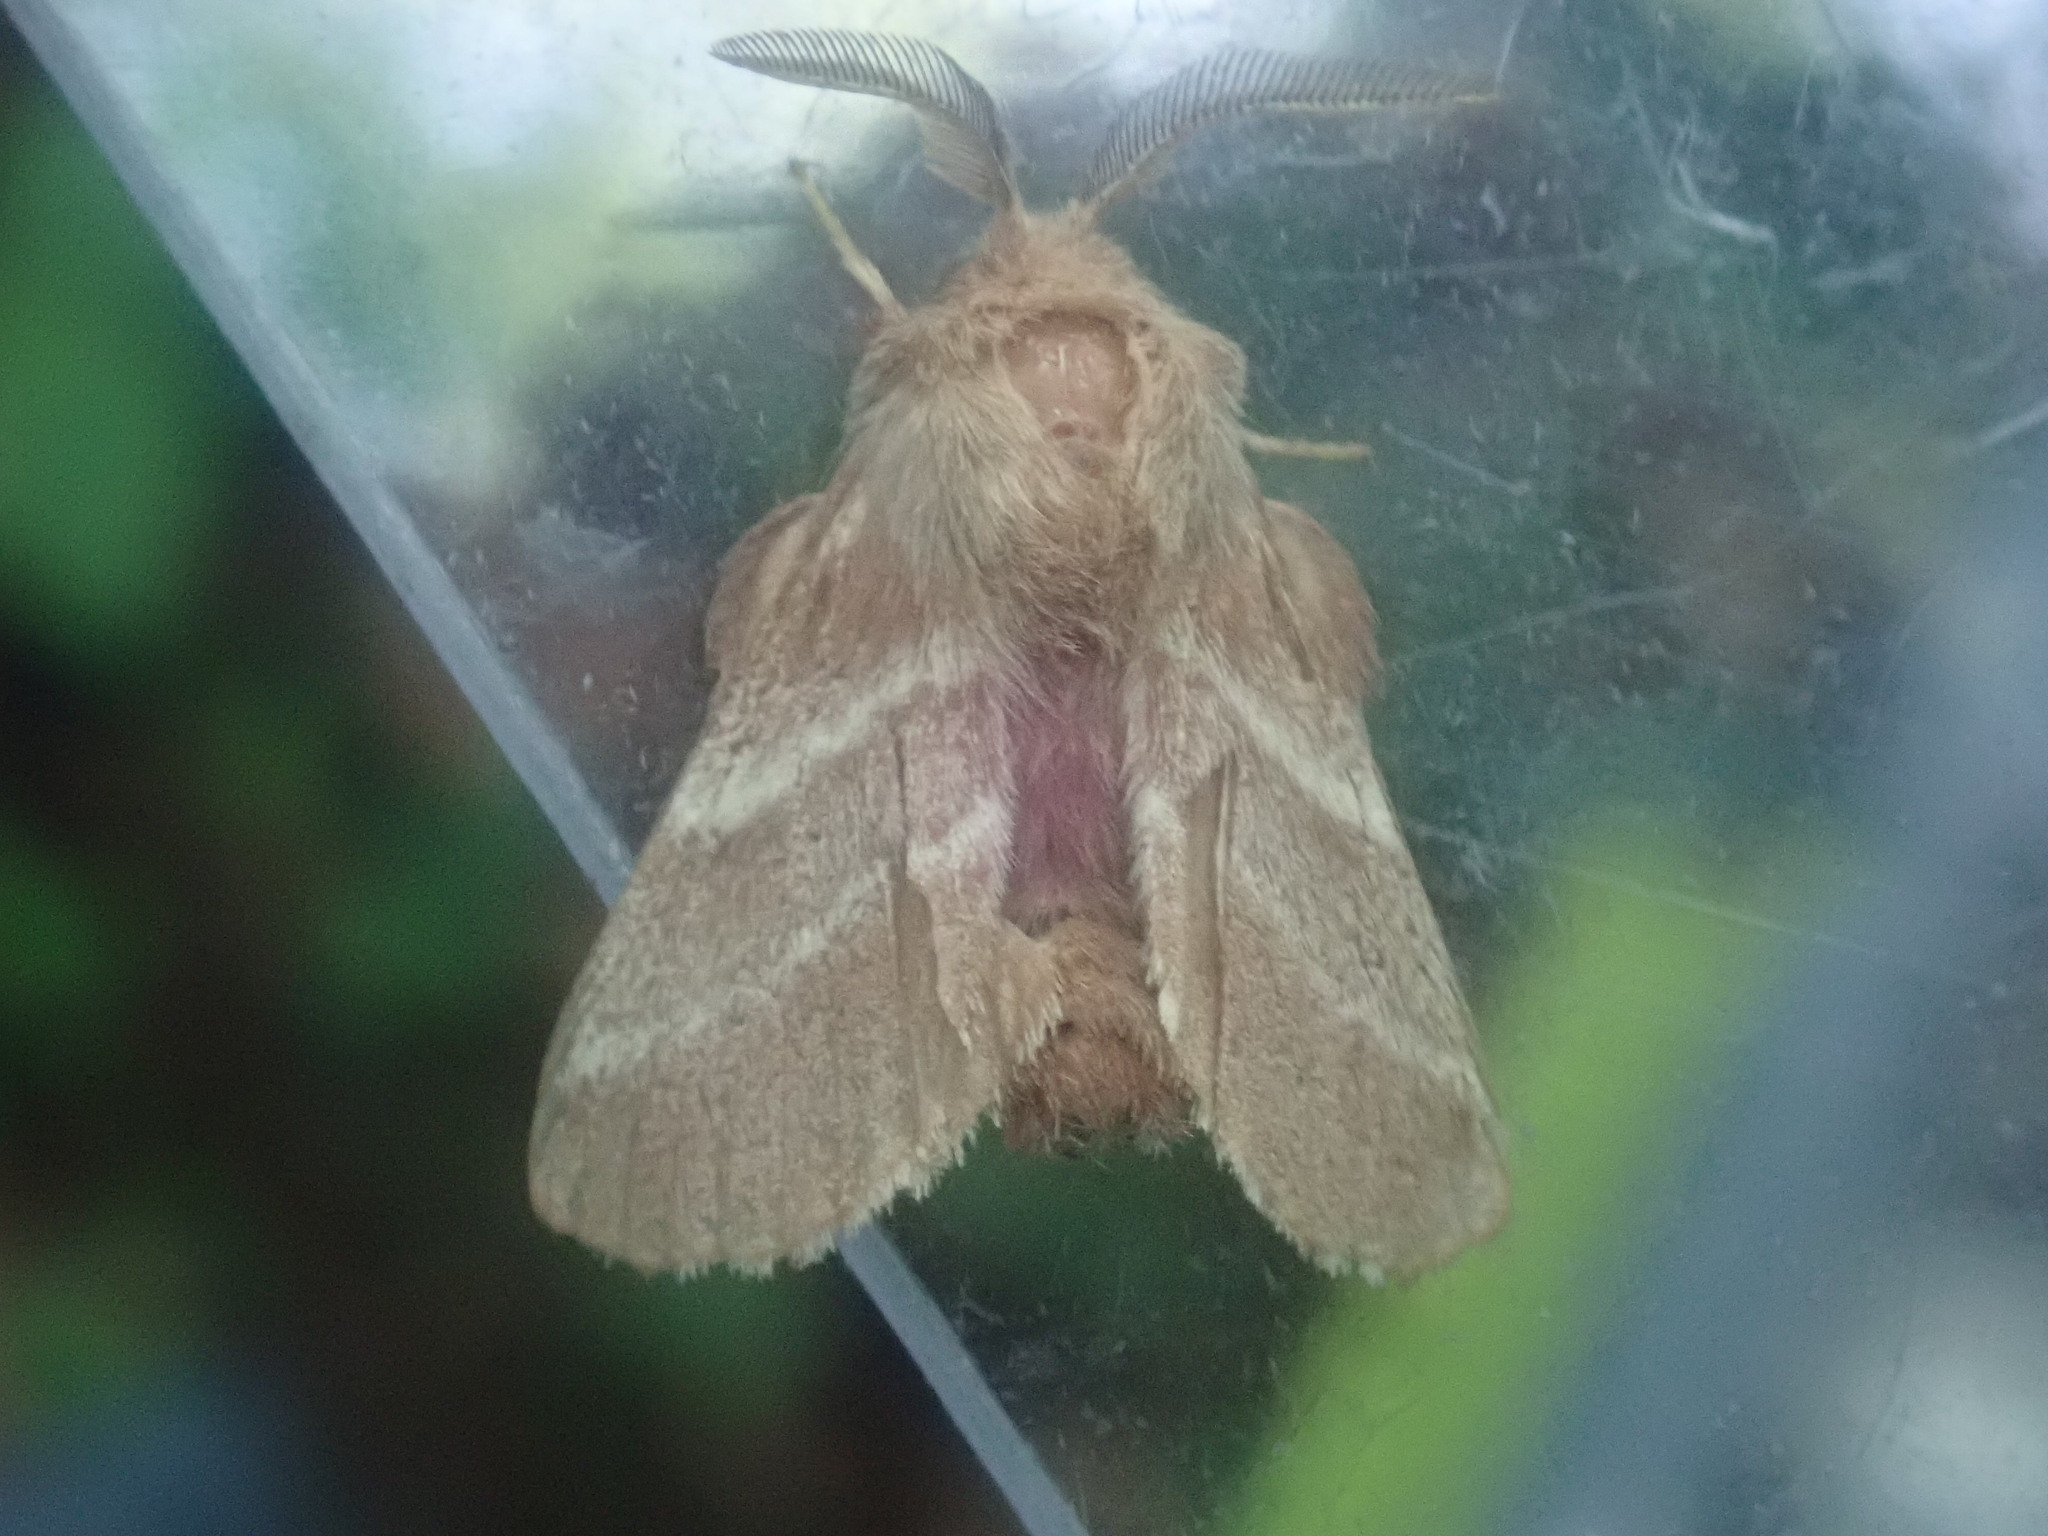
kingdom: Animalia
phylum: Arthropoda
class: Insecta
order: Lepidoptera
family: Lasiocampidae
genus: Malacosoma
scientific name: Malacosoma americana
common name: Eastern tent caterpillar moth
